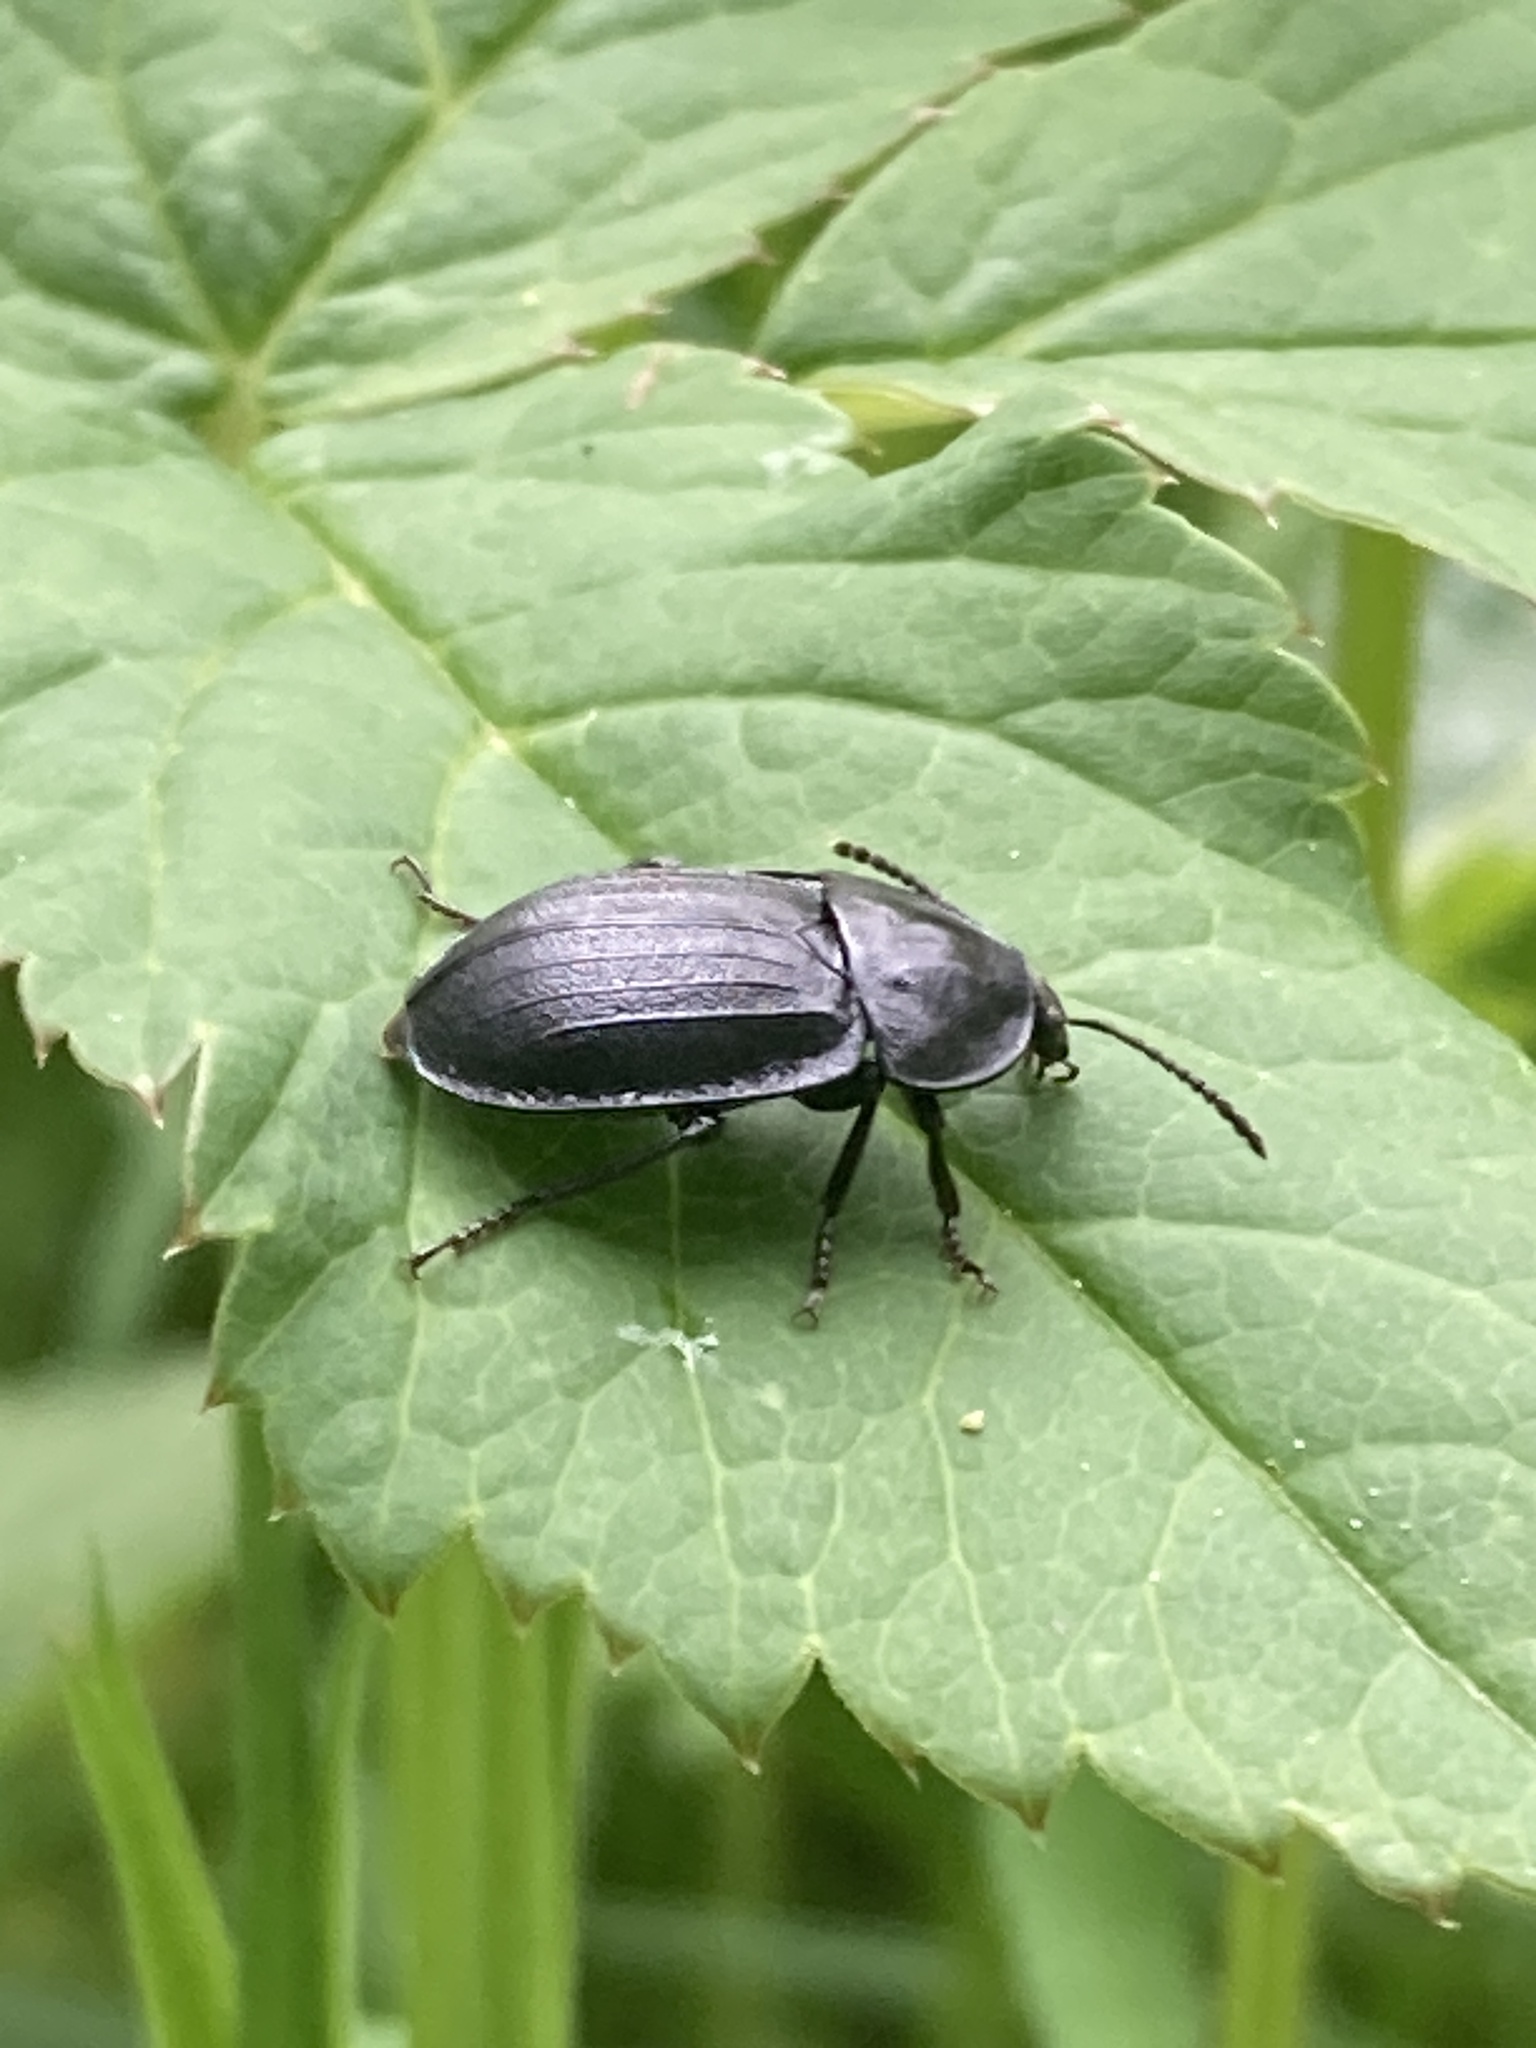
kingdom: Animalia
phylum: Arthropoda
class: Insecta
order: Coleoptera
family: Staphylinidae
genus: Silpha
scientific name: Silpha atrata
